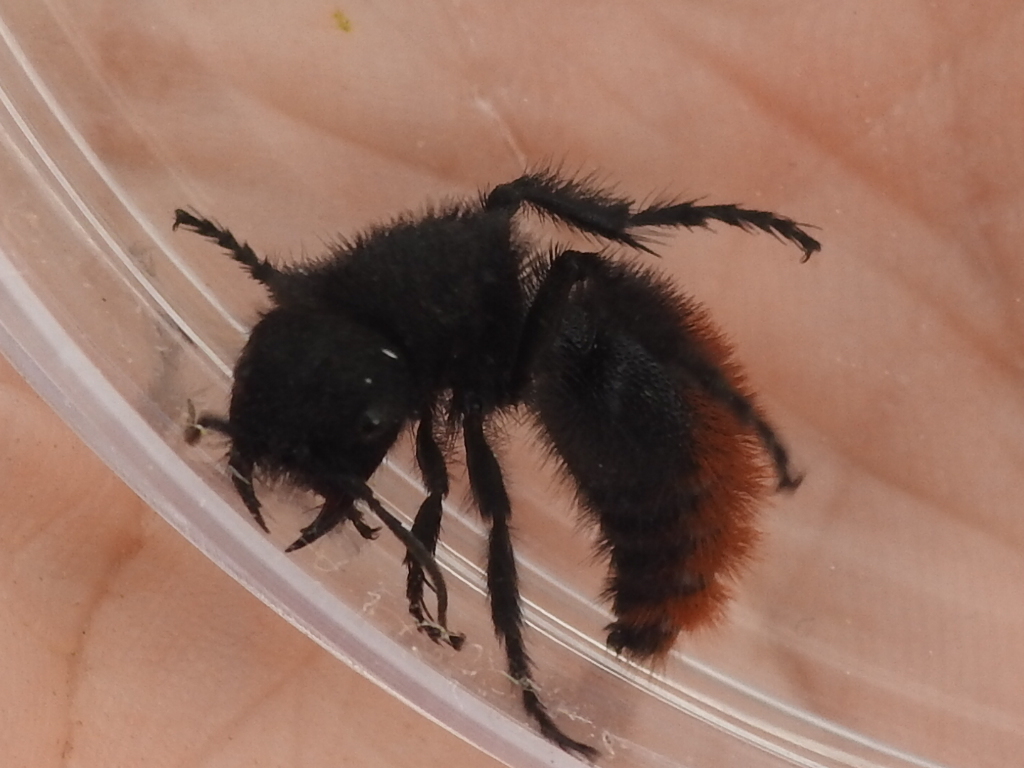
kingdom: Animalia
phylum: Arthropoda
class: Insecta
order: Hymenoptera
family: Mutillidae
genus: Dasymutilla
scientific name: Dasymutilla gorgon
